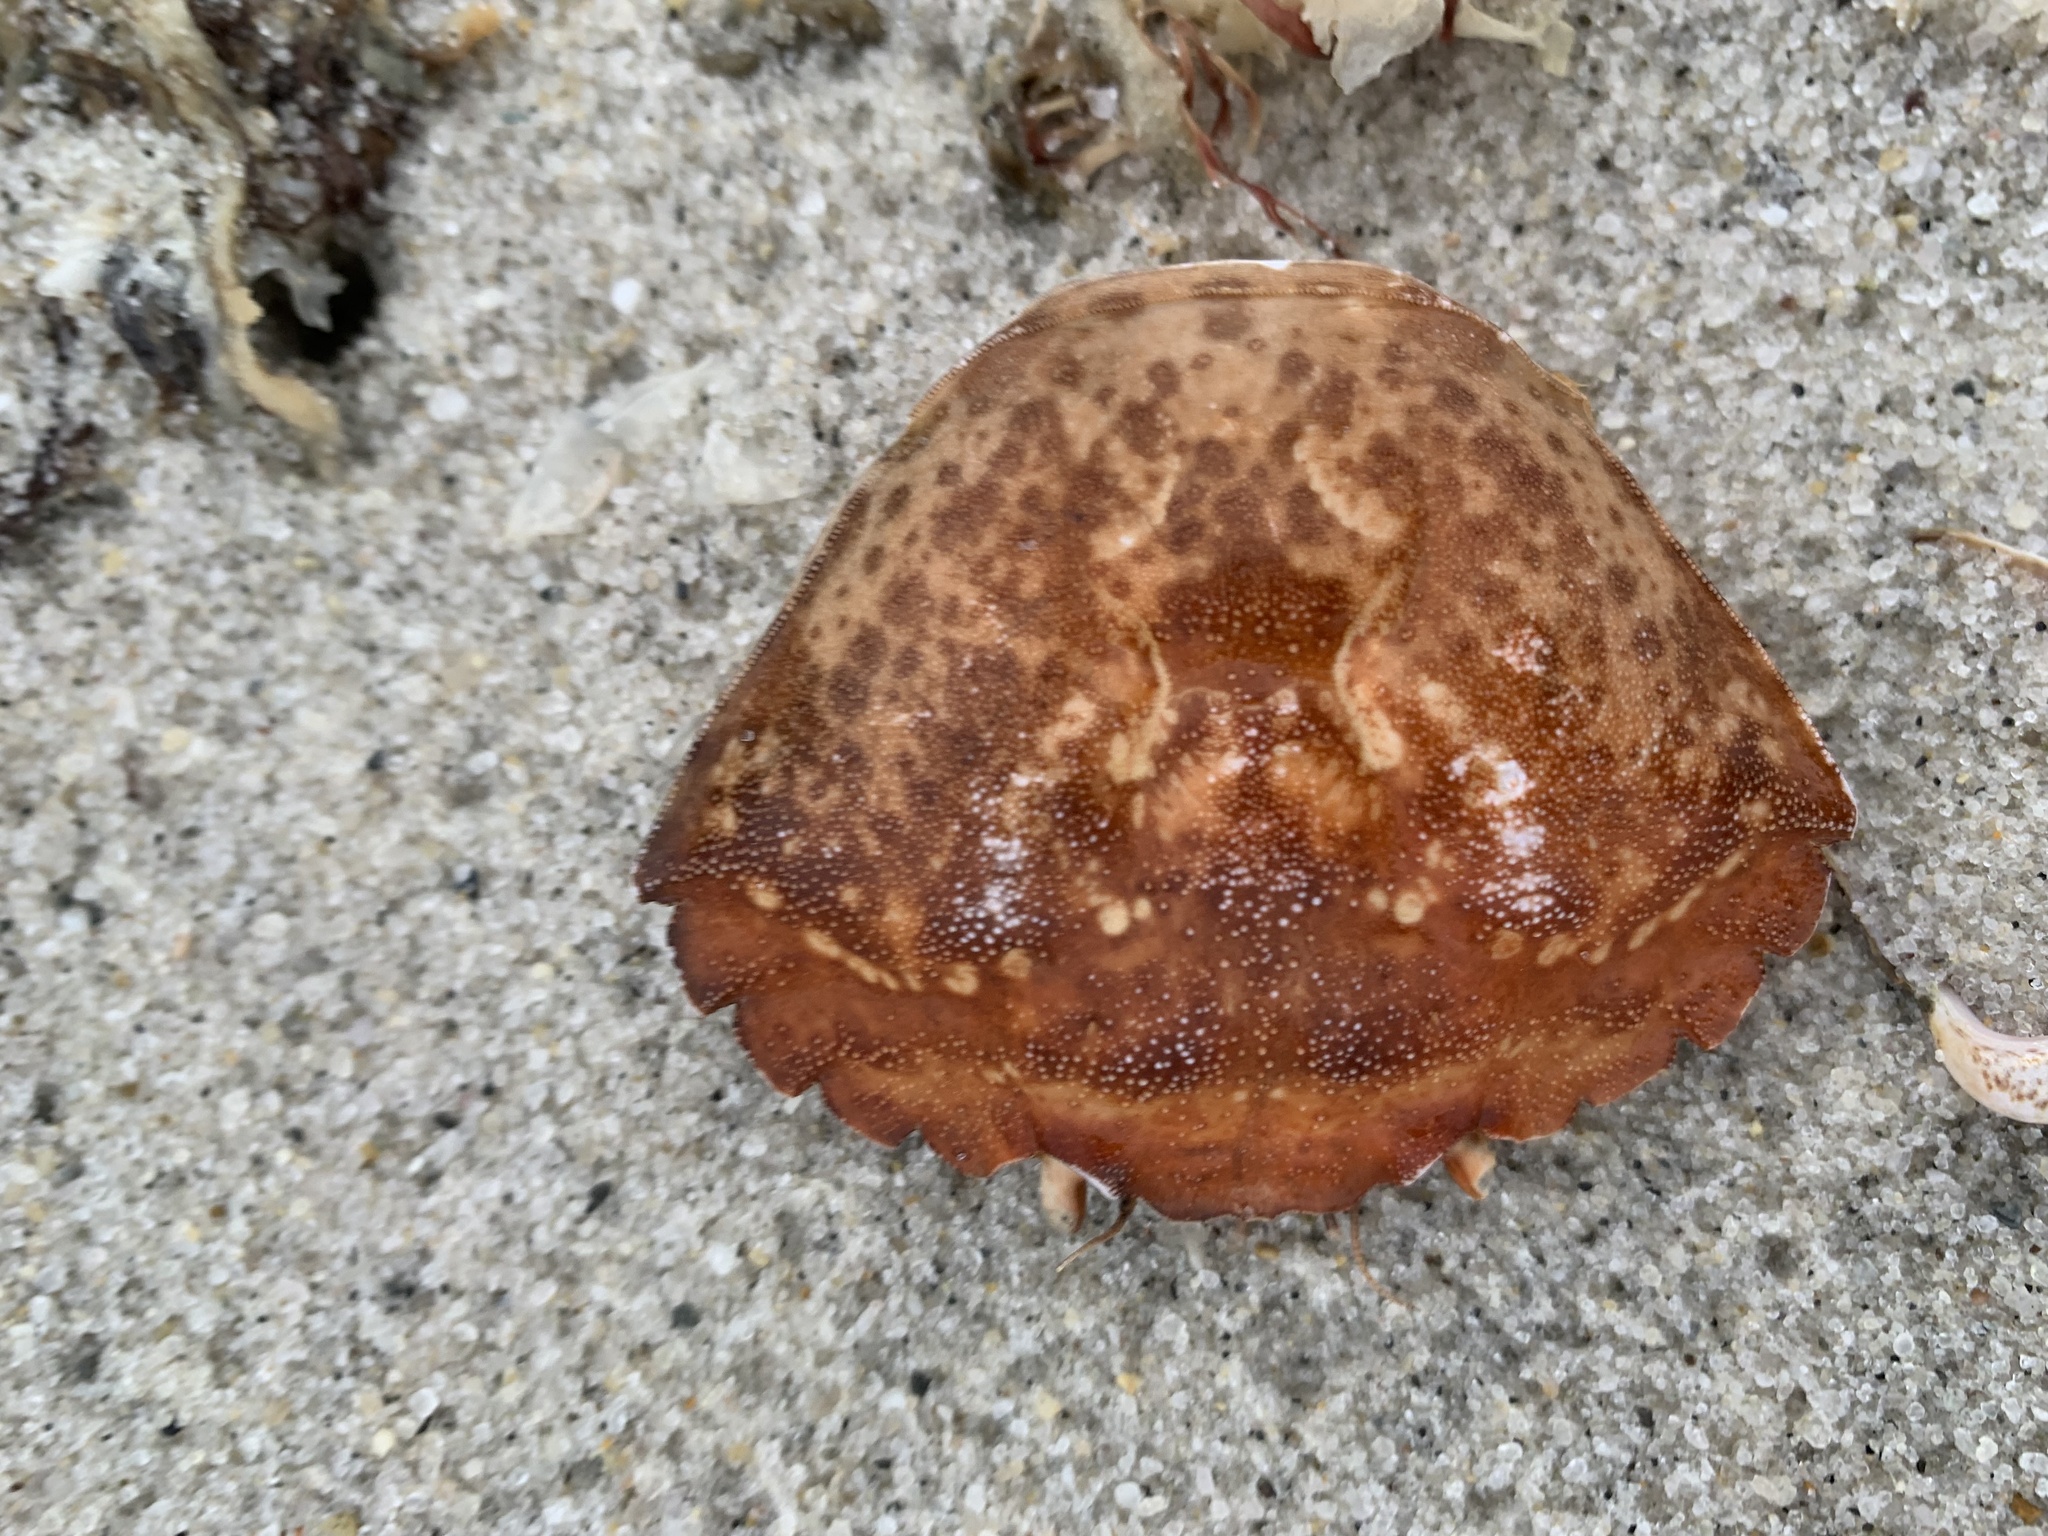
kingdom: Animalia
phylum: Arthropoda
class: Malacostraca
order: Decapoda
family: Carcinidae
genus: Carcinus
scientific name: Carcinus maenas
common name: European green crab
